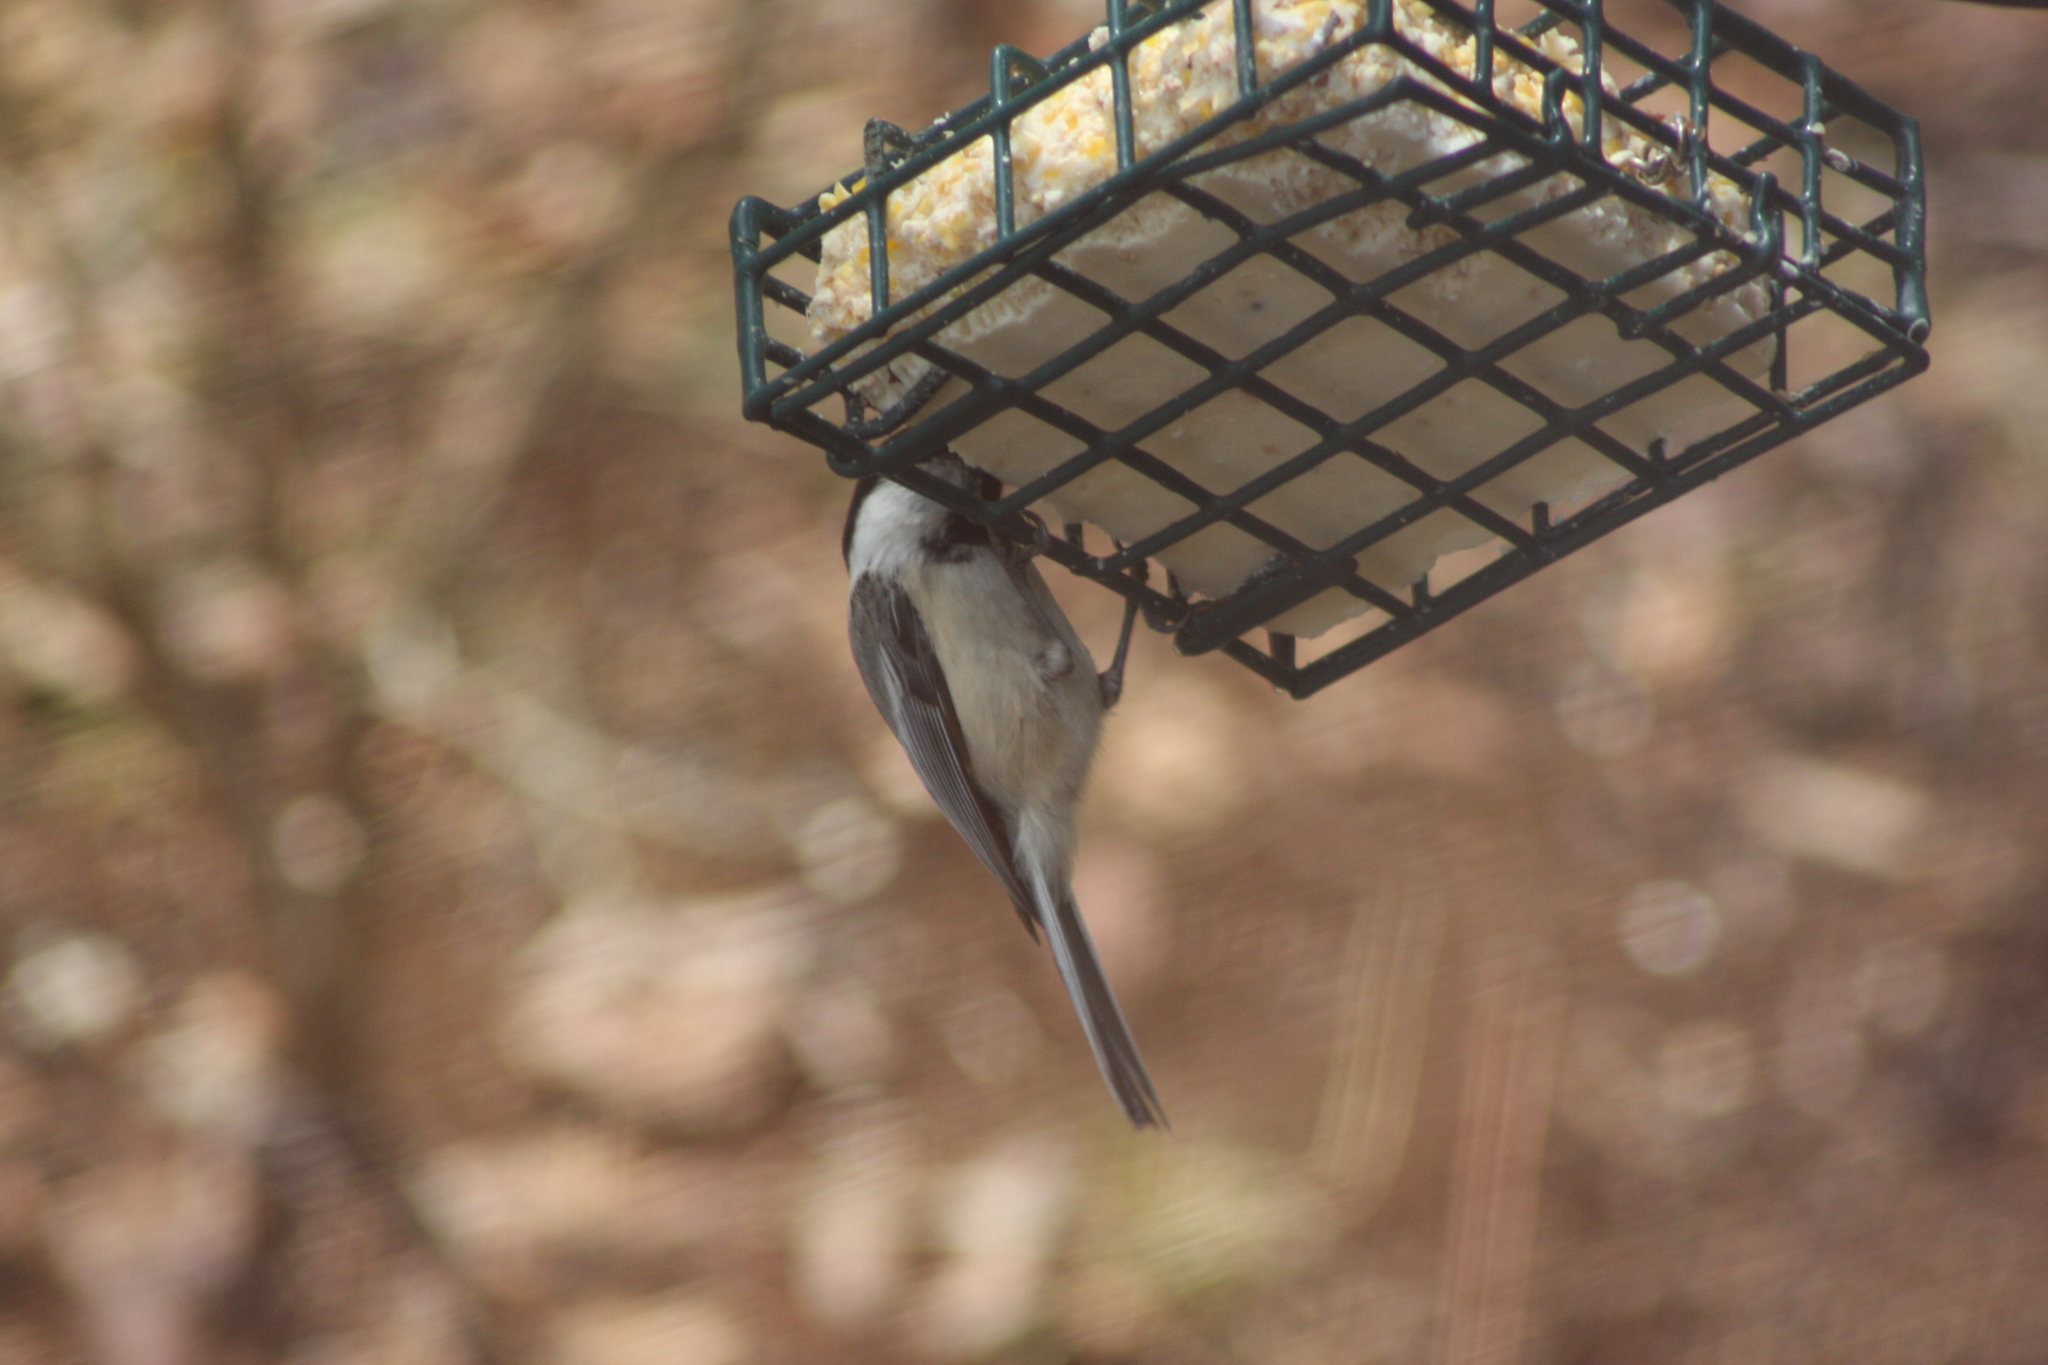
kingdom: Animalia
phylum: Chordata
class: Aves
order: Passeriformes
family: Paridae
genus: Poecile
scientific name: Poecile atricapillus
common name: Black-capped chickadee
